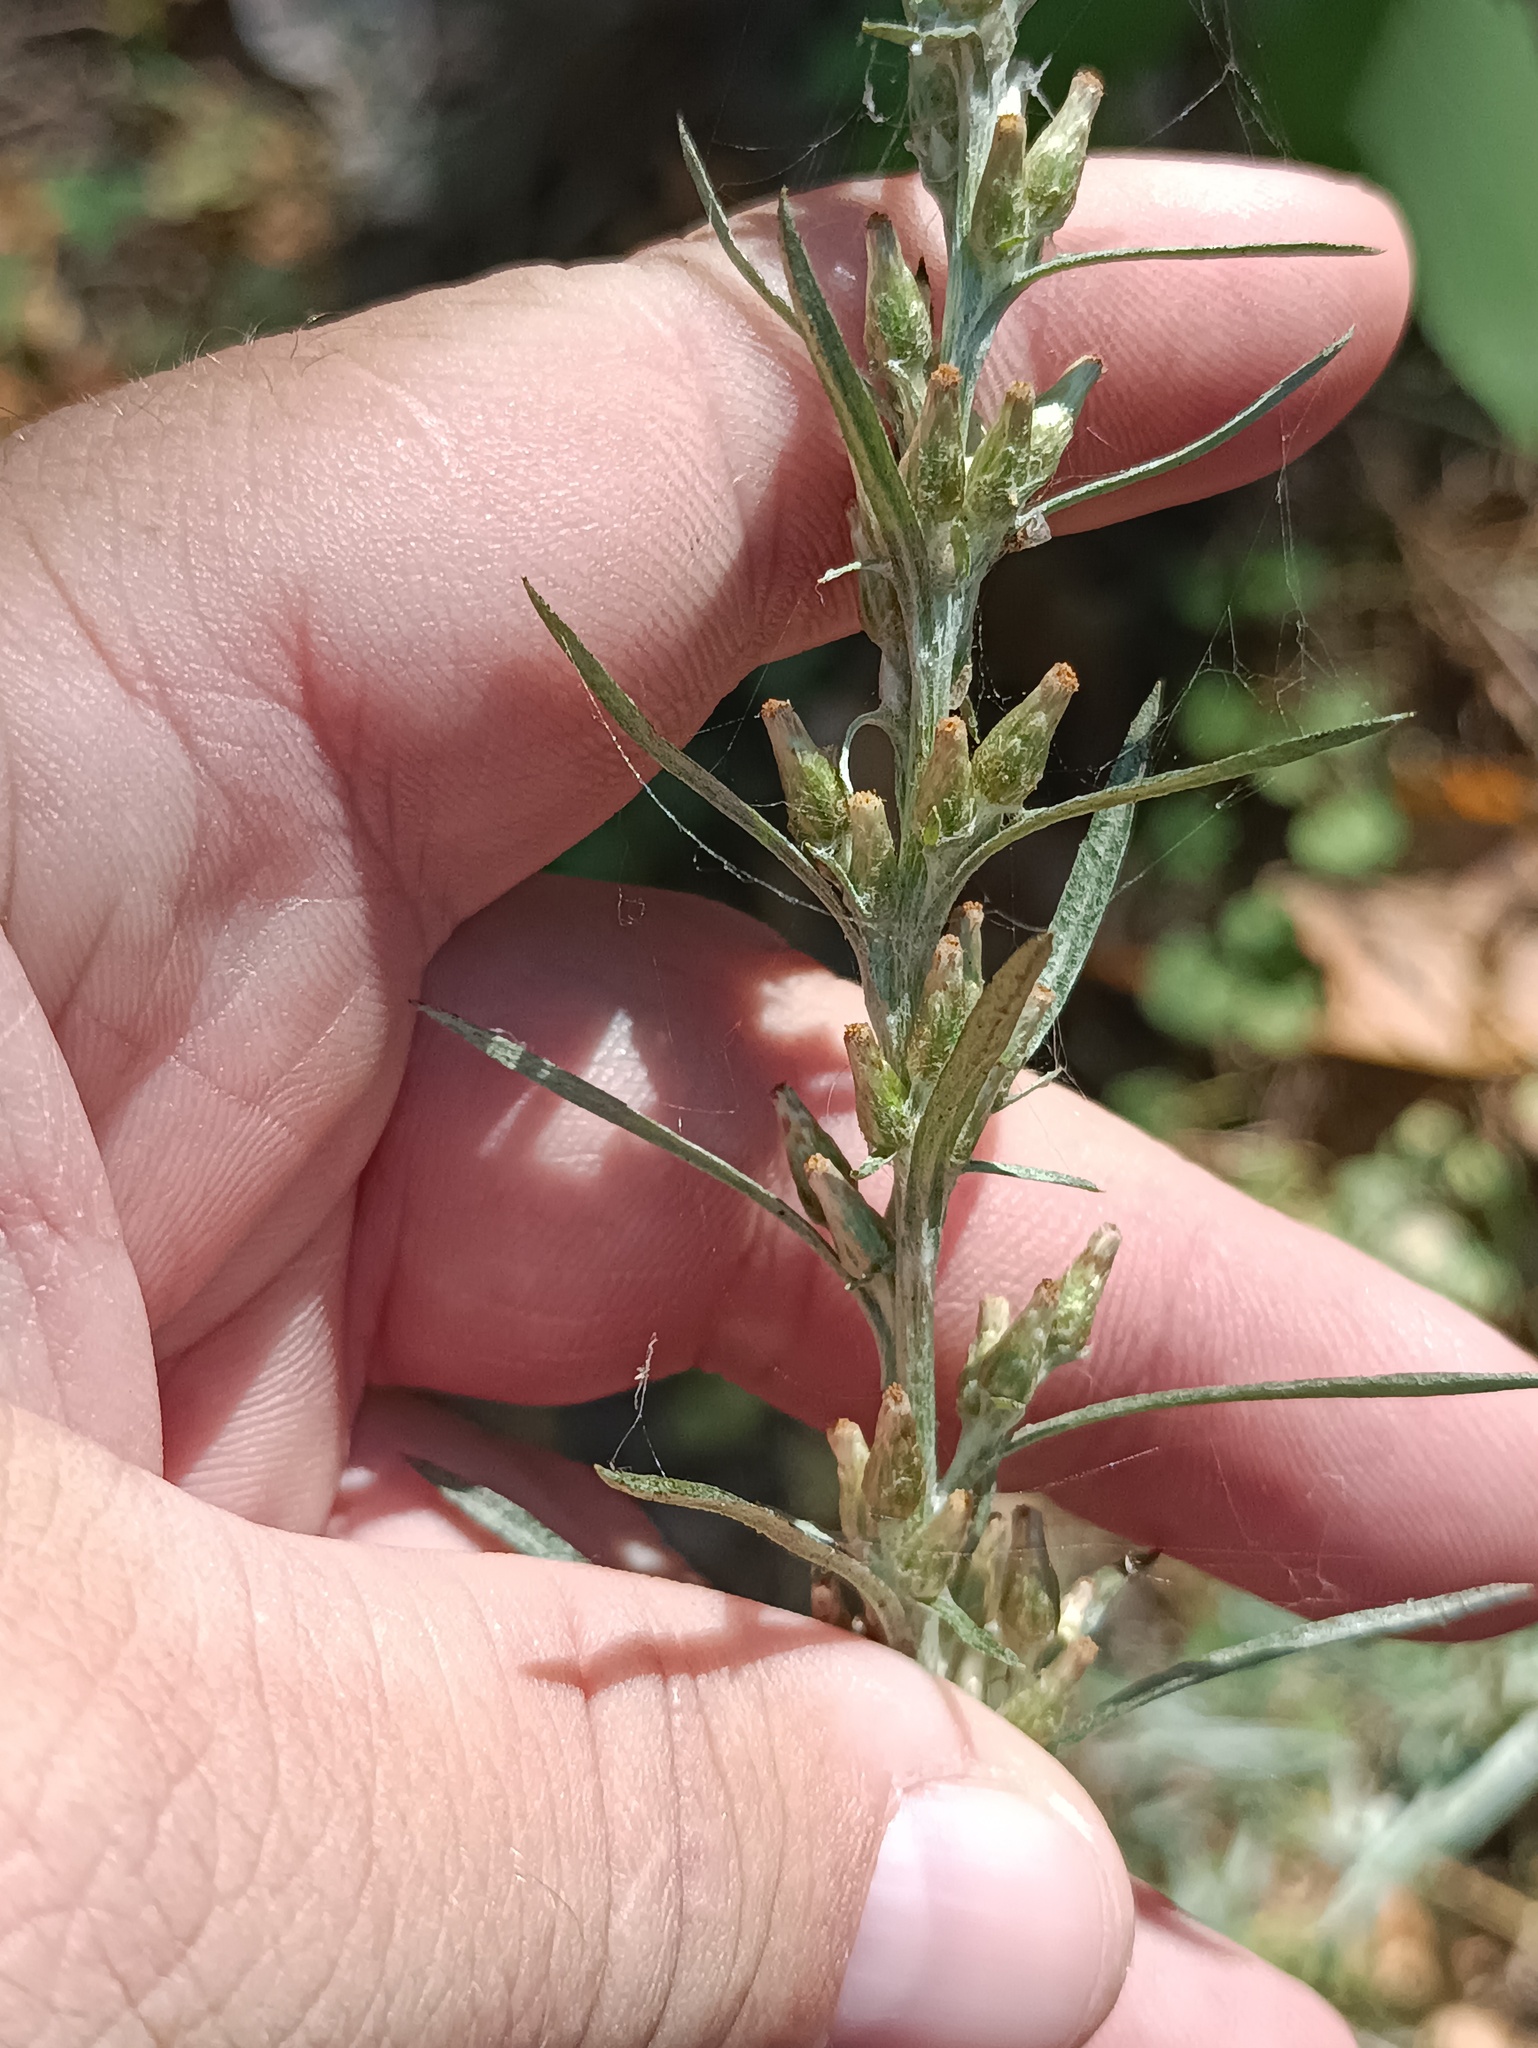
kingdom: Plantae
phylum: Tracheophyta
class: Magnoliopsida
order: Asterales
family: Asteraceae
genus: Omalotheca
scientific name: Omalotheca sylvatica
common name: Heath cudweed
